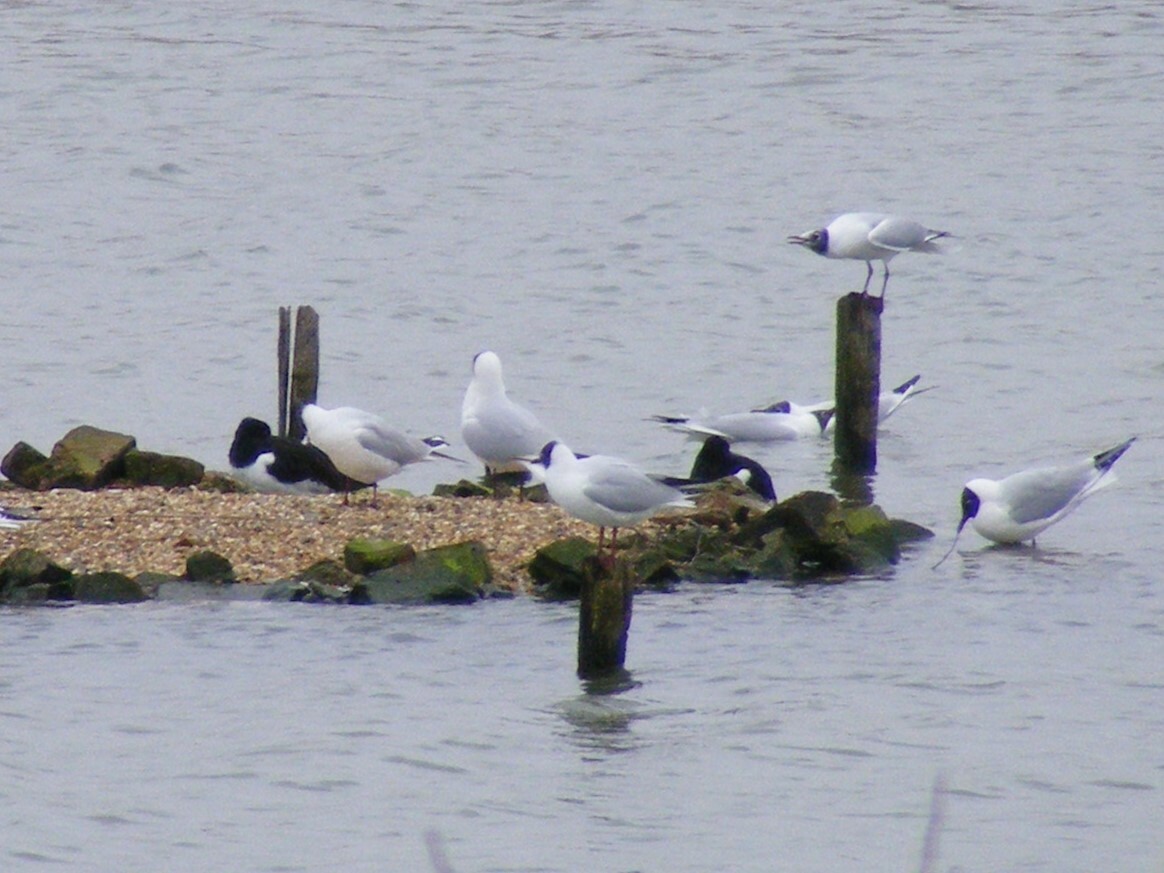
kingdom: Animalia
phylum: Chordata
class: Aves
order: Charadriiformes
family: Haematopodidae
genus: Haematopus
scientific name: Haematopus ostralegus
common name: Eurasian oystercatcher
